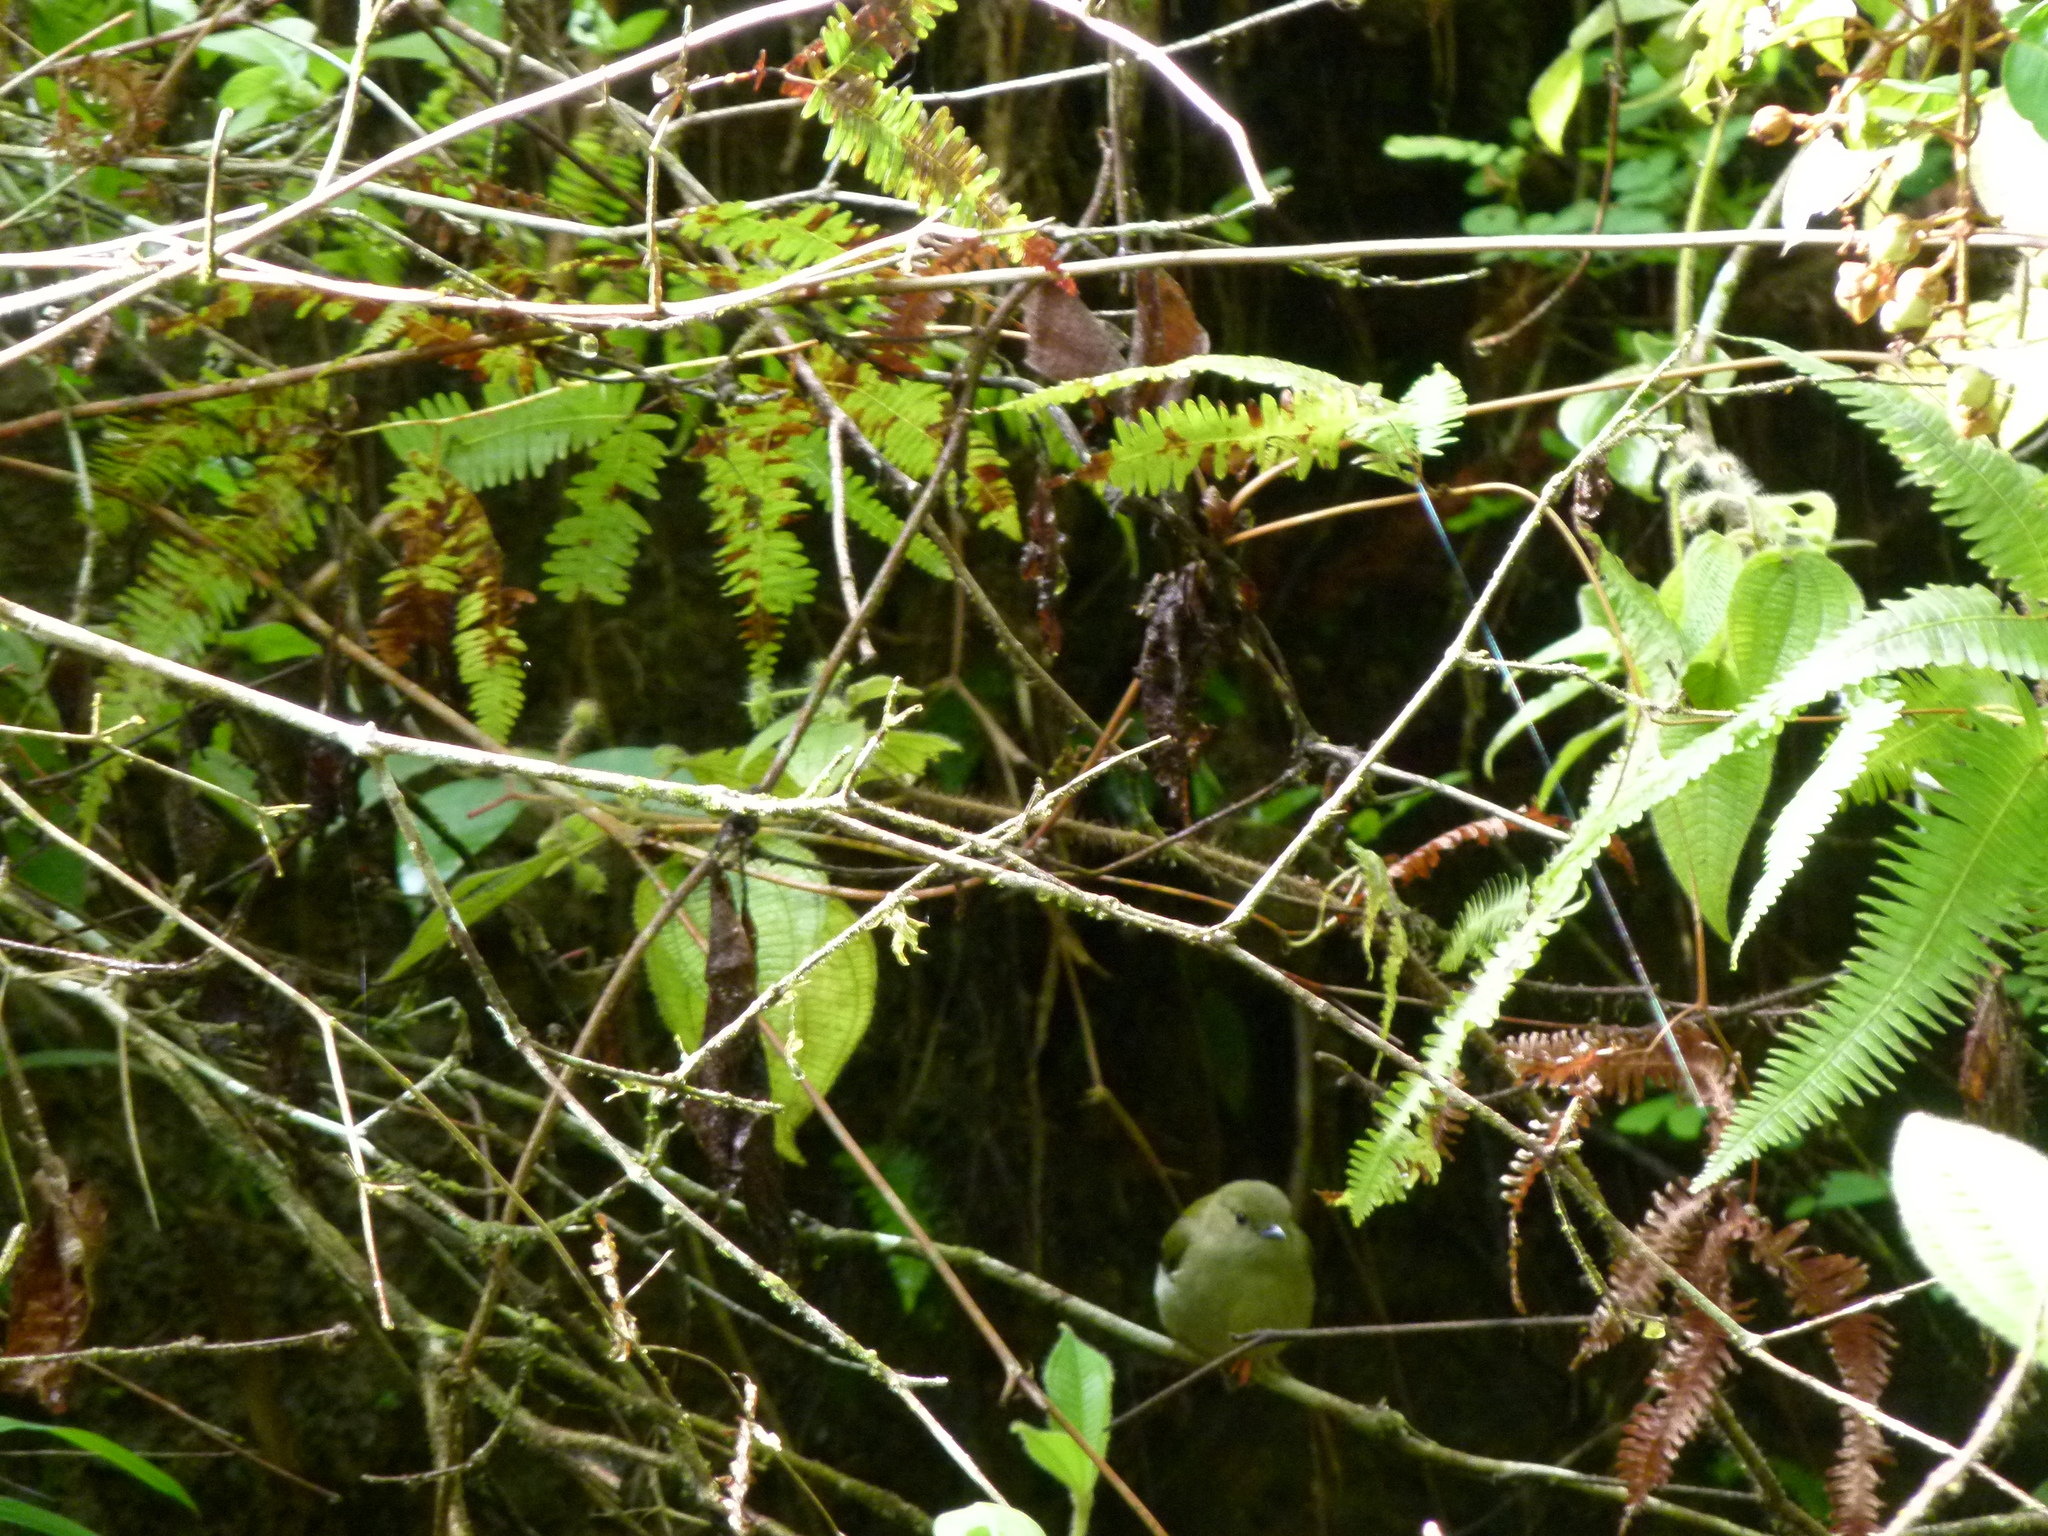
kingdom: Animalia
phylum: Chordata
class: Aves
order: Passeriformes
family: Pipridae
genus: Manacus
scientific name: Manacus manacus
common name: White-bearded manakin
